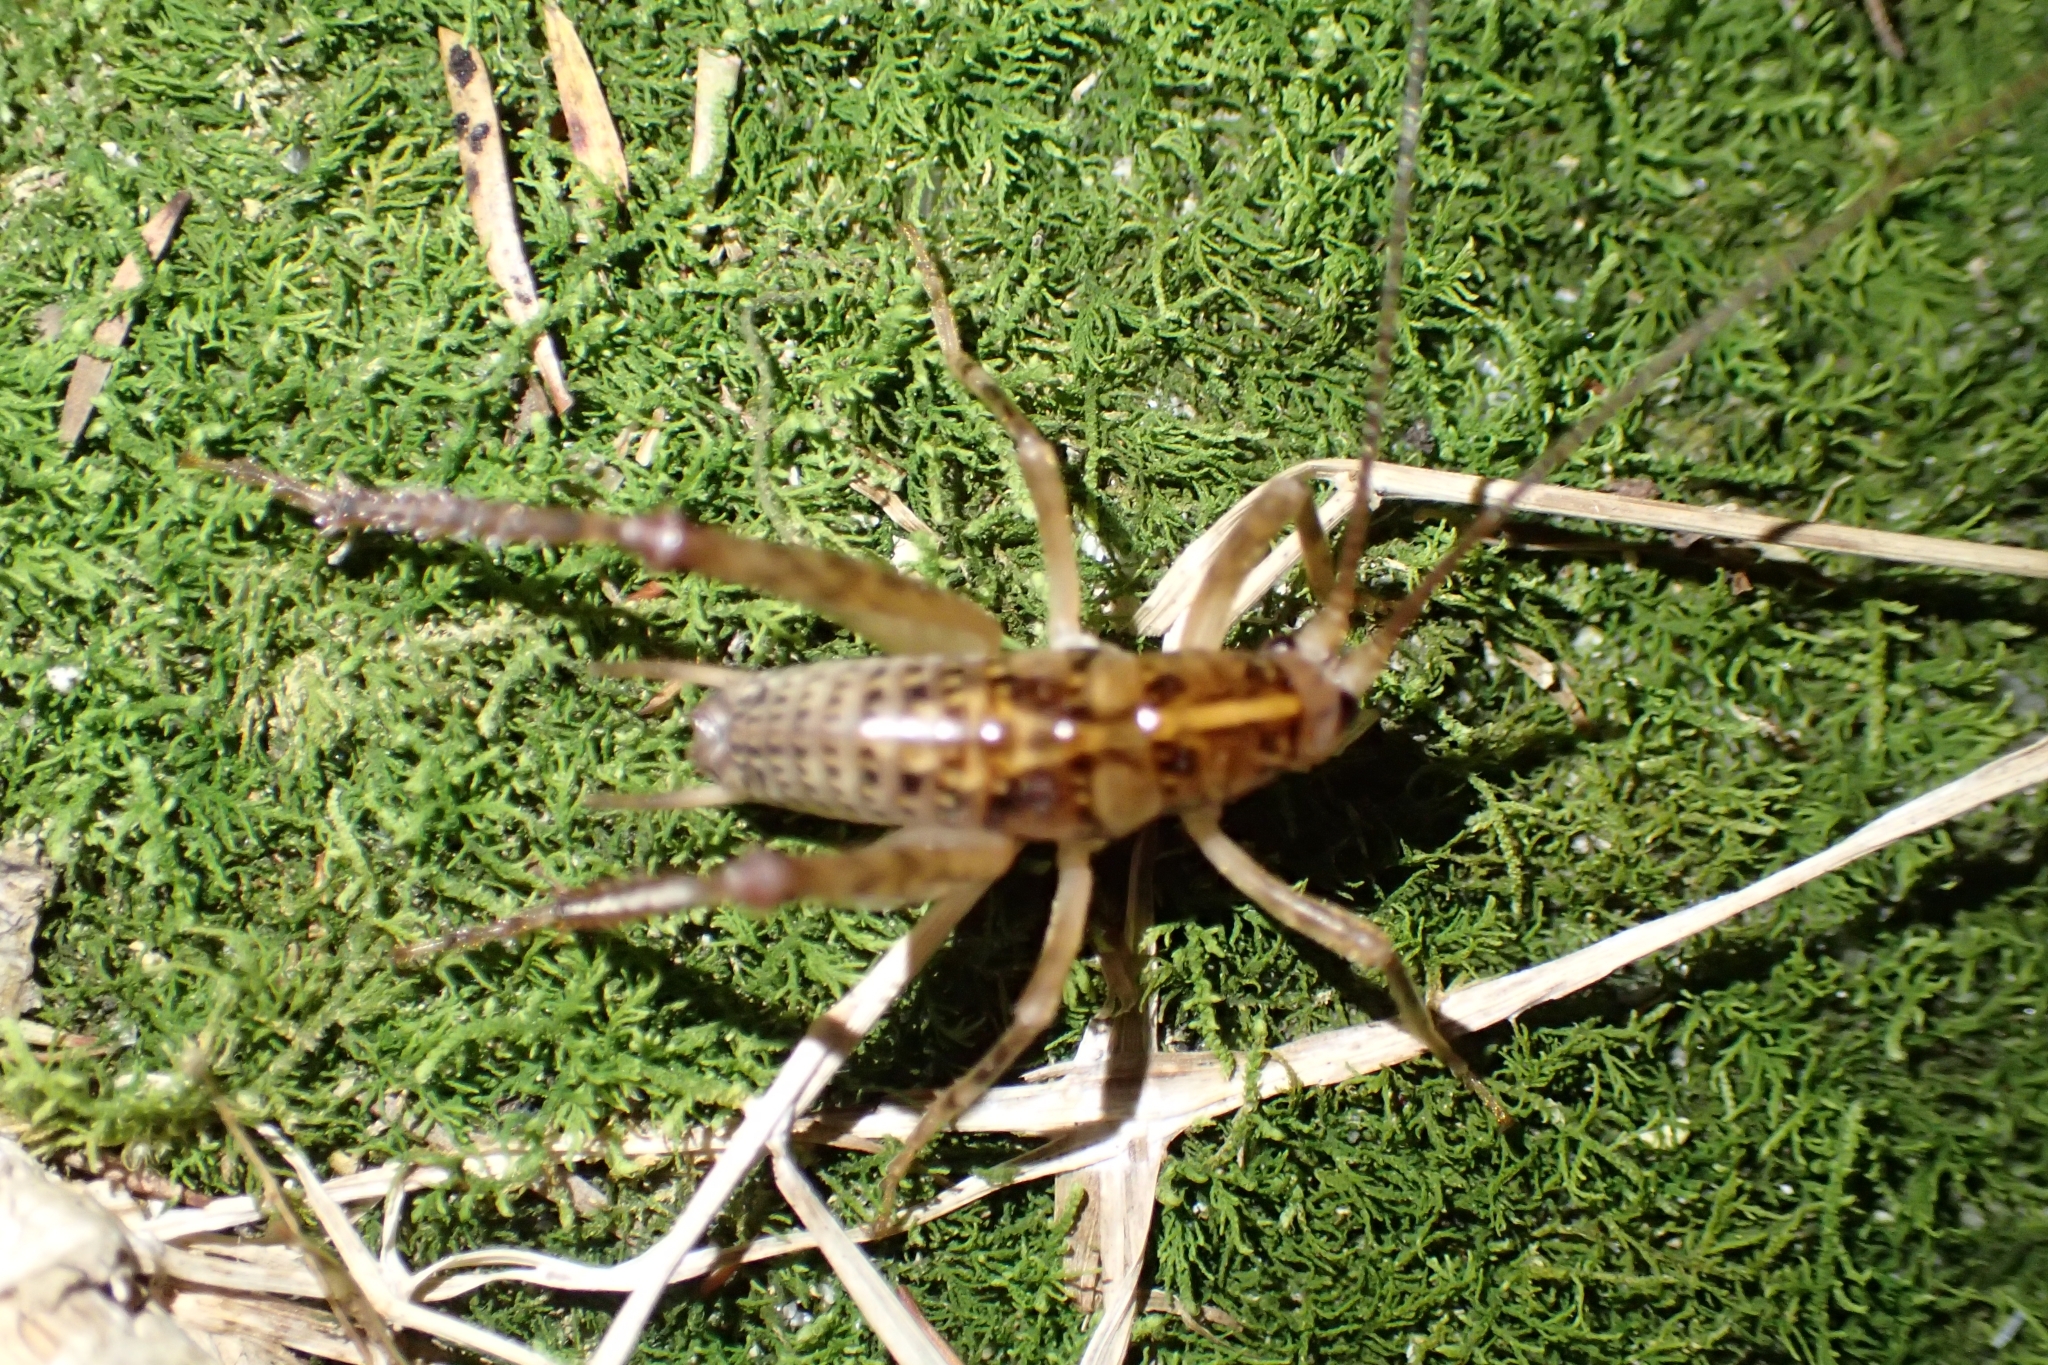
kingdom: Animalia
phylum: Arthropoda
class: Insecta
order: Orthoptera
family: Rhaphidophoridae
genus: Talitropsis
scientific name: Talitropsis sedilloti
